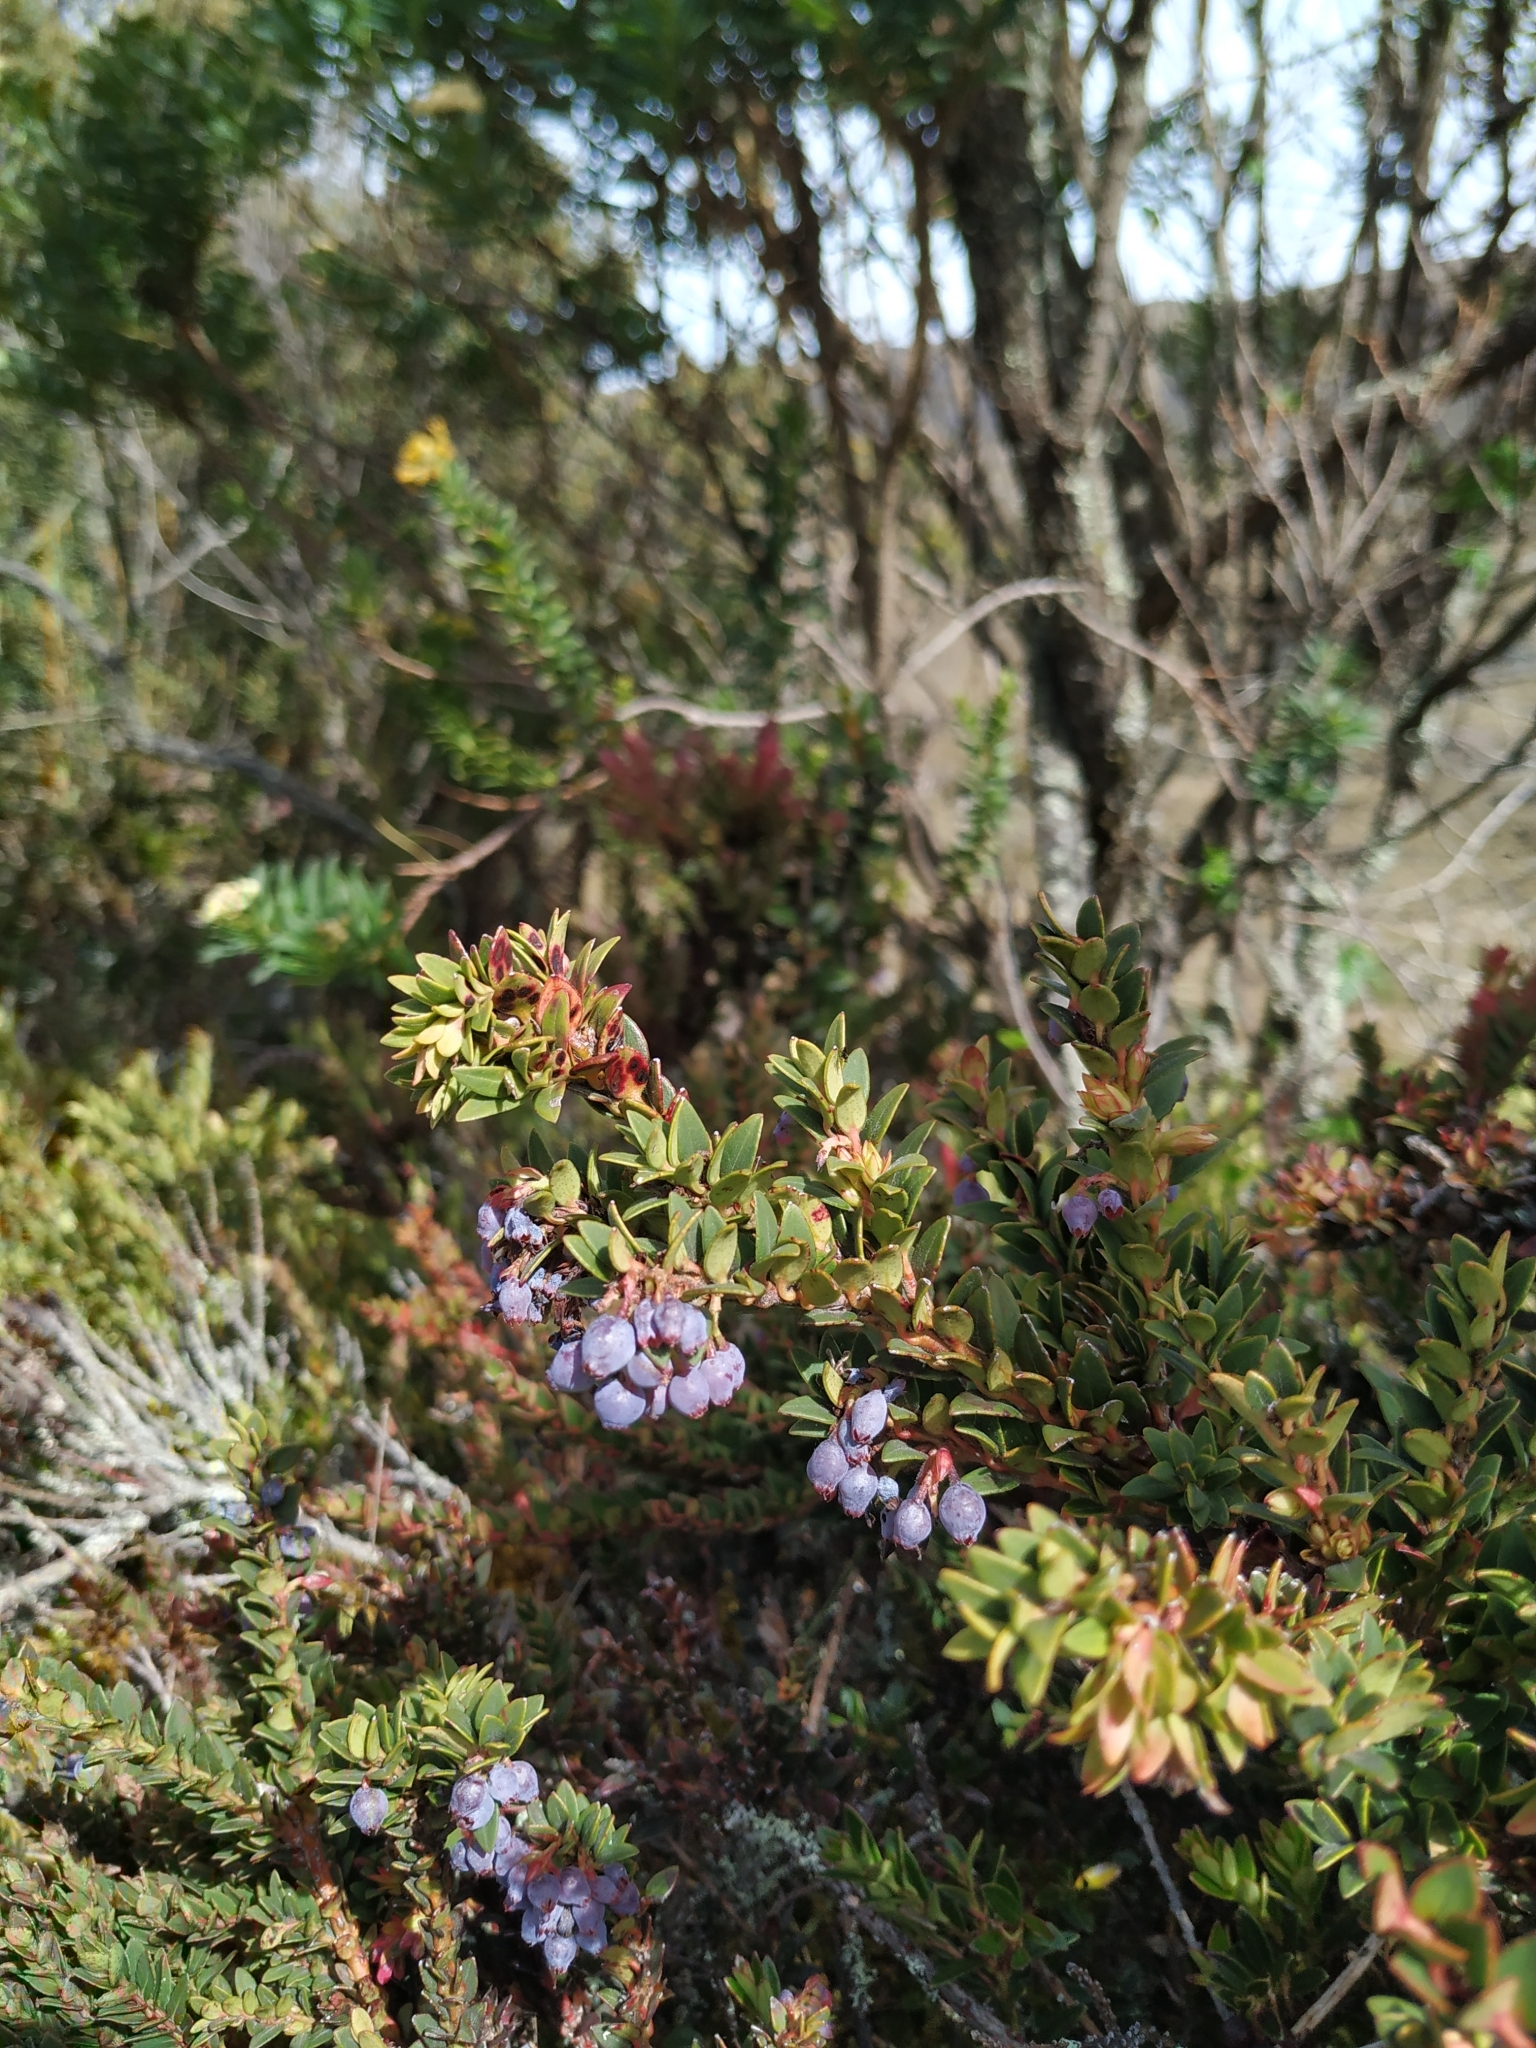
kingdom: Plantae
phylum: Tracheophyta
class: Magnoliopsida
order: Ericales
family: Ericaceae
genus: Vaccinium
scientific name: Vaccinium floribundum
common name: Colombian blueberry
